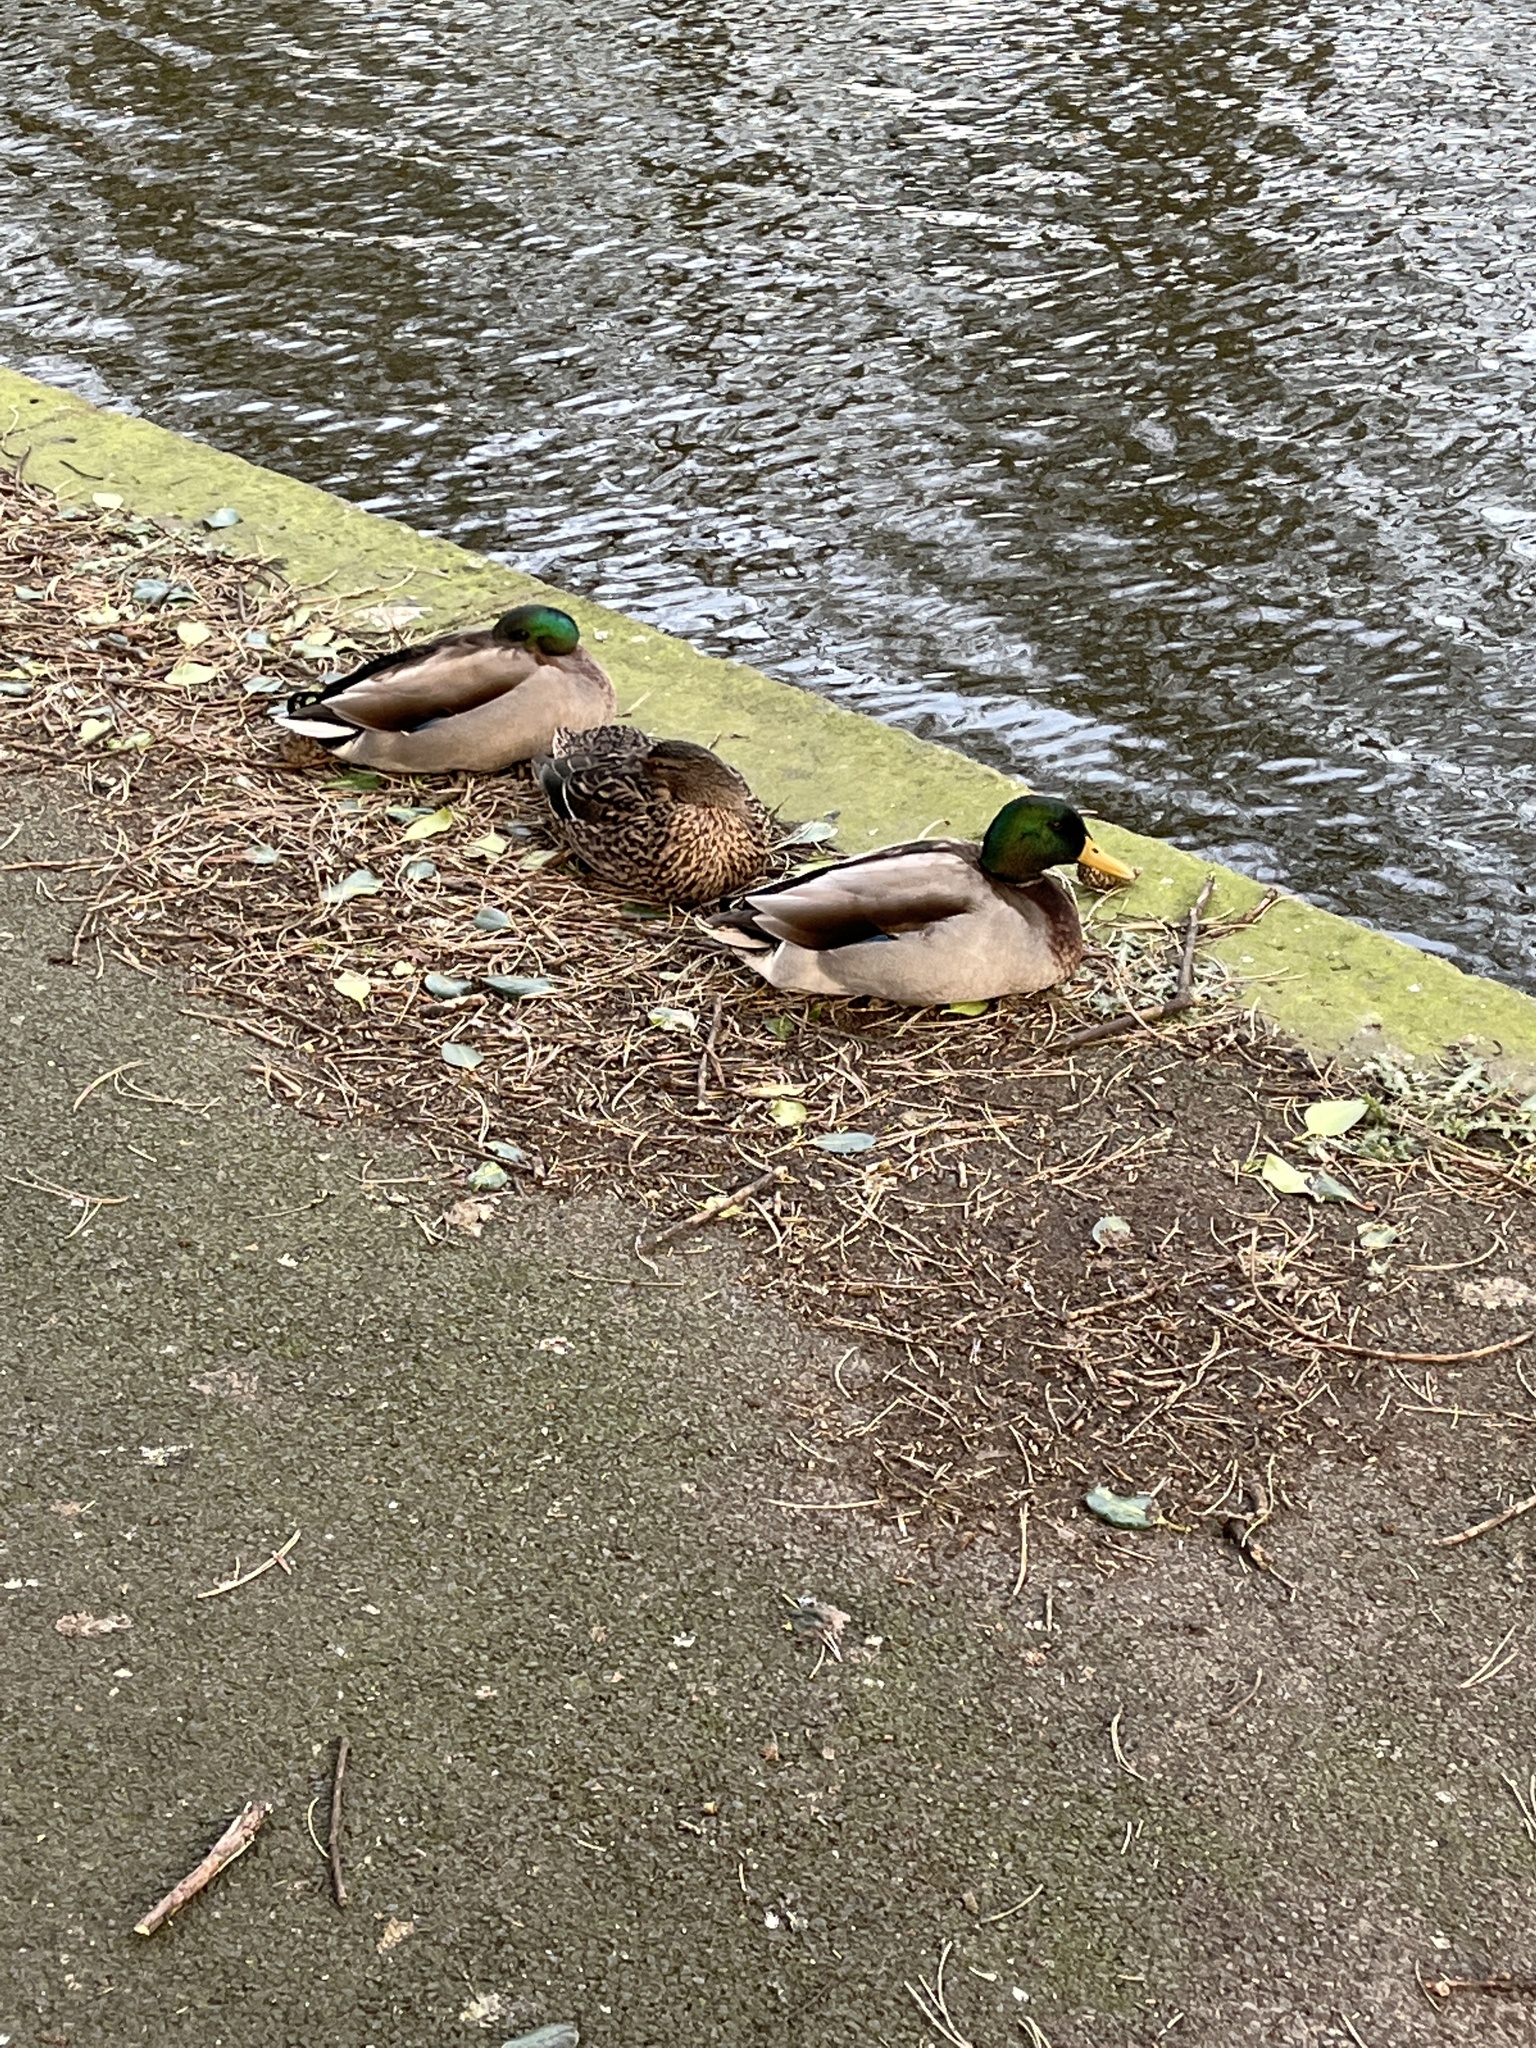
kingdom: Animalia
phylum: Chordata
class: Aves
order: Anseriformes
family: Anatidae
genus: Anas
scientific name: Anas platyrhynchos
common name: Mallard
